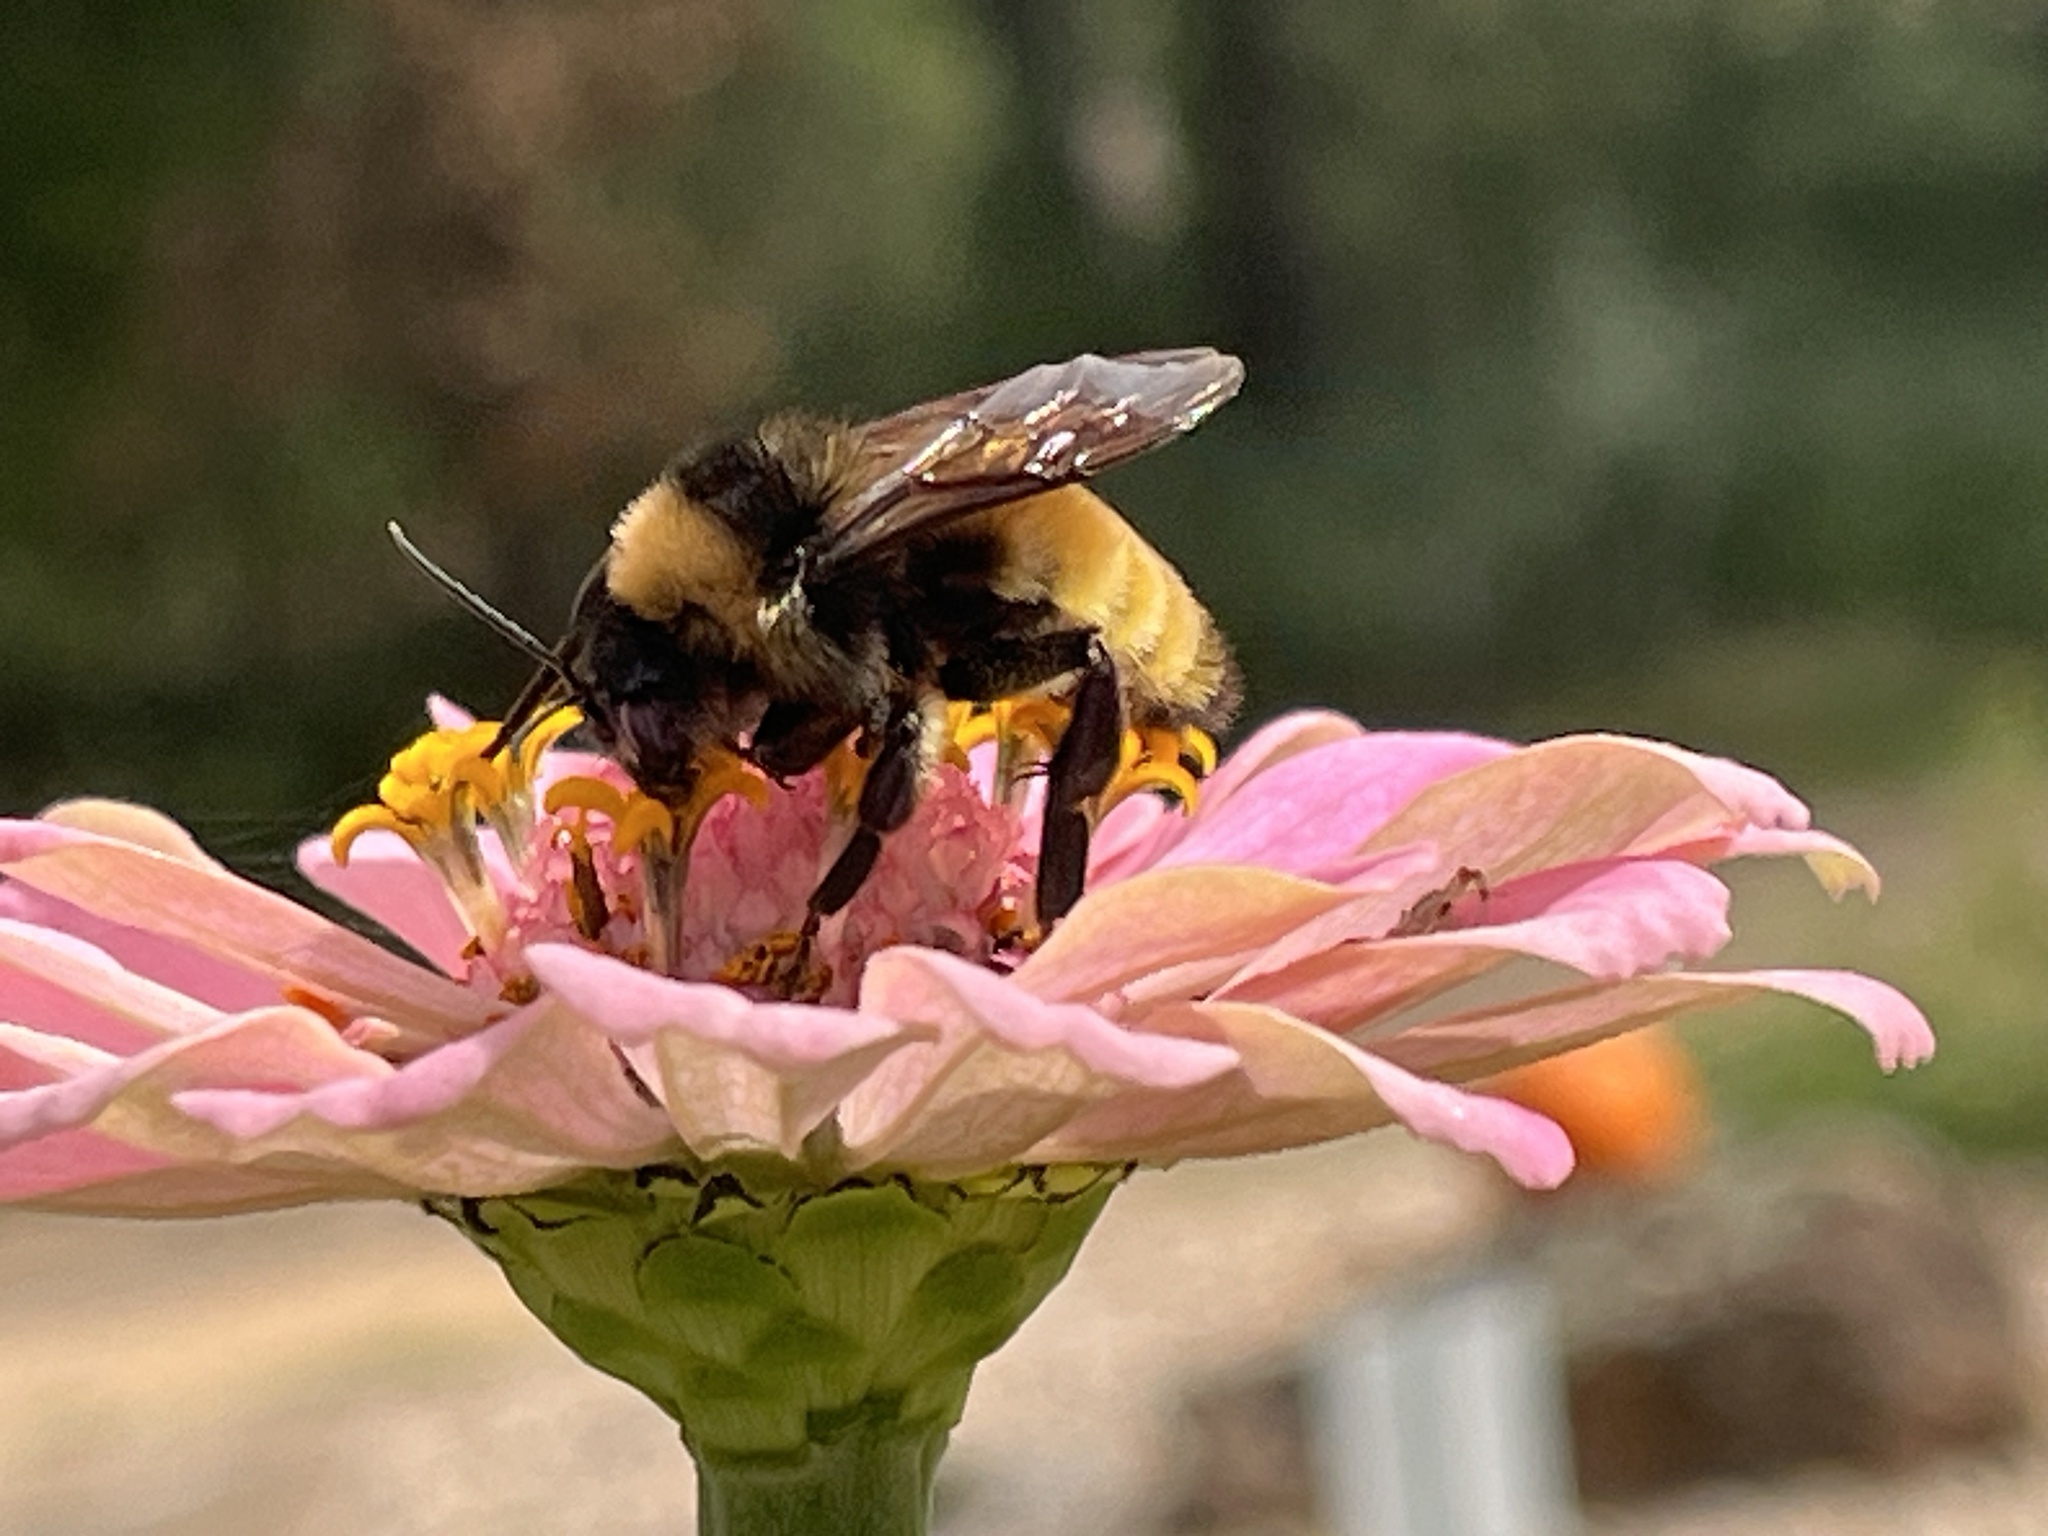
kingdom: Animalia
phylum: Arthropoda
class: Insecta
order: Hymenoptera
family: Apidae
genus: Bombus
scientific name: Bombus pensylvanicus
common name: Bumble bee
